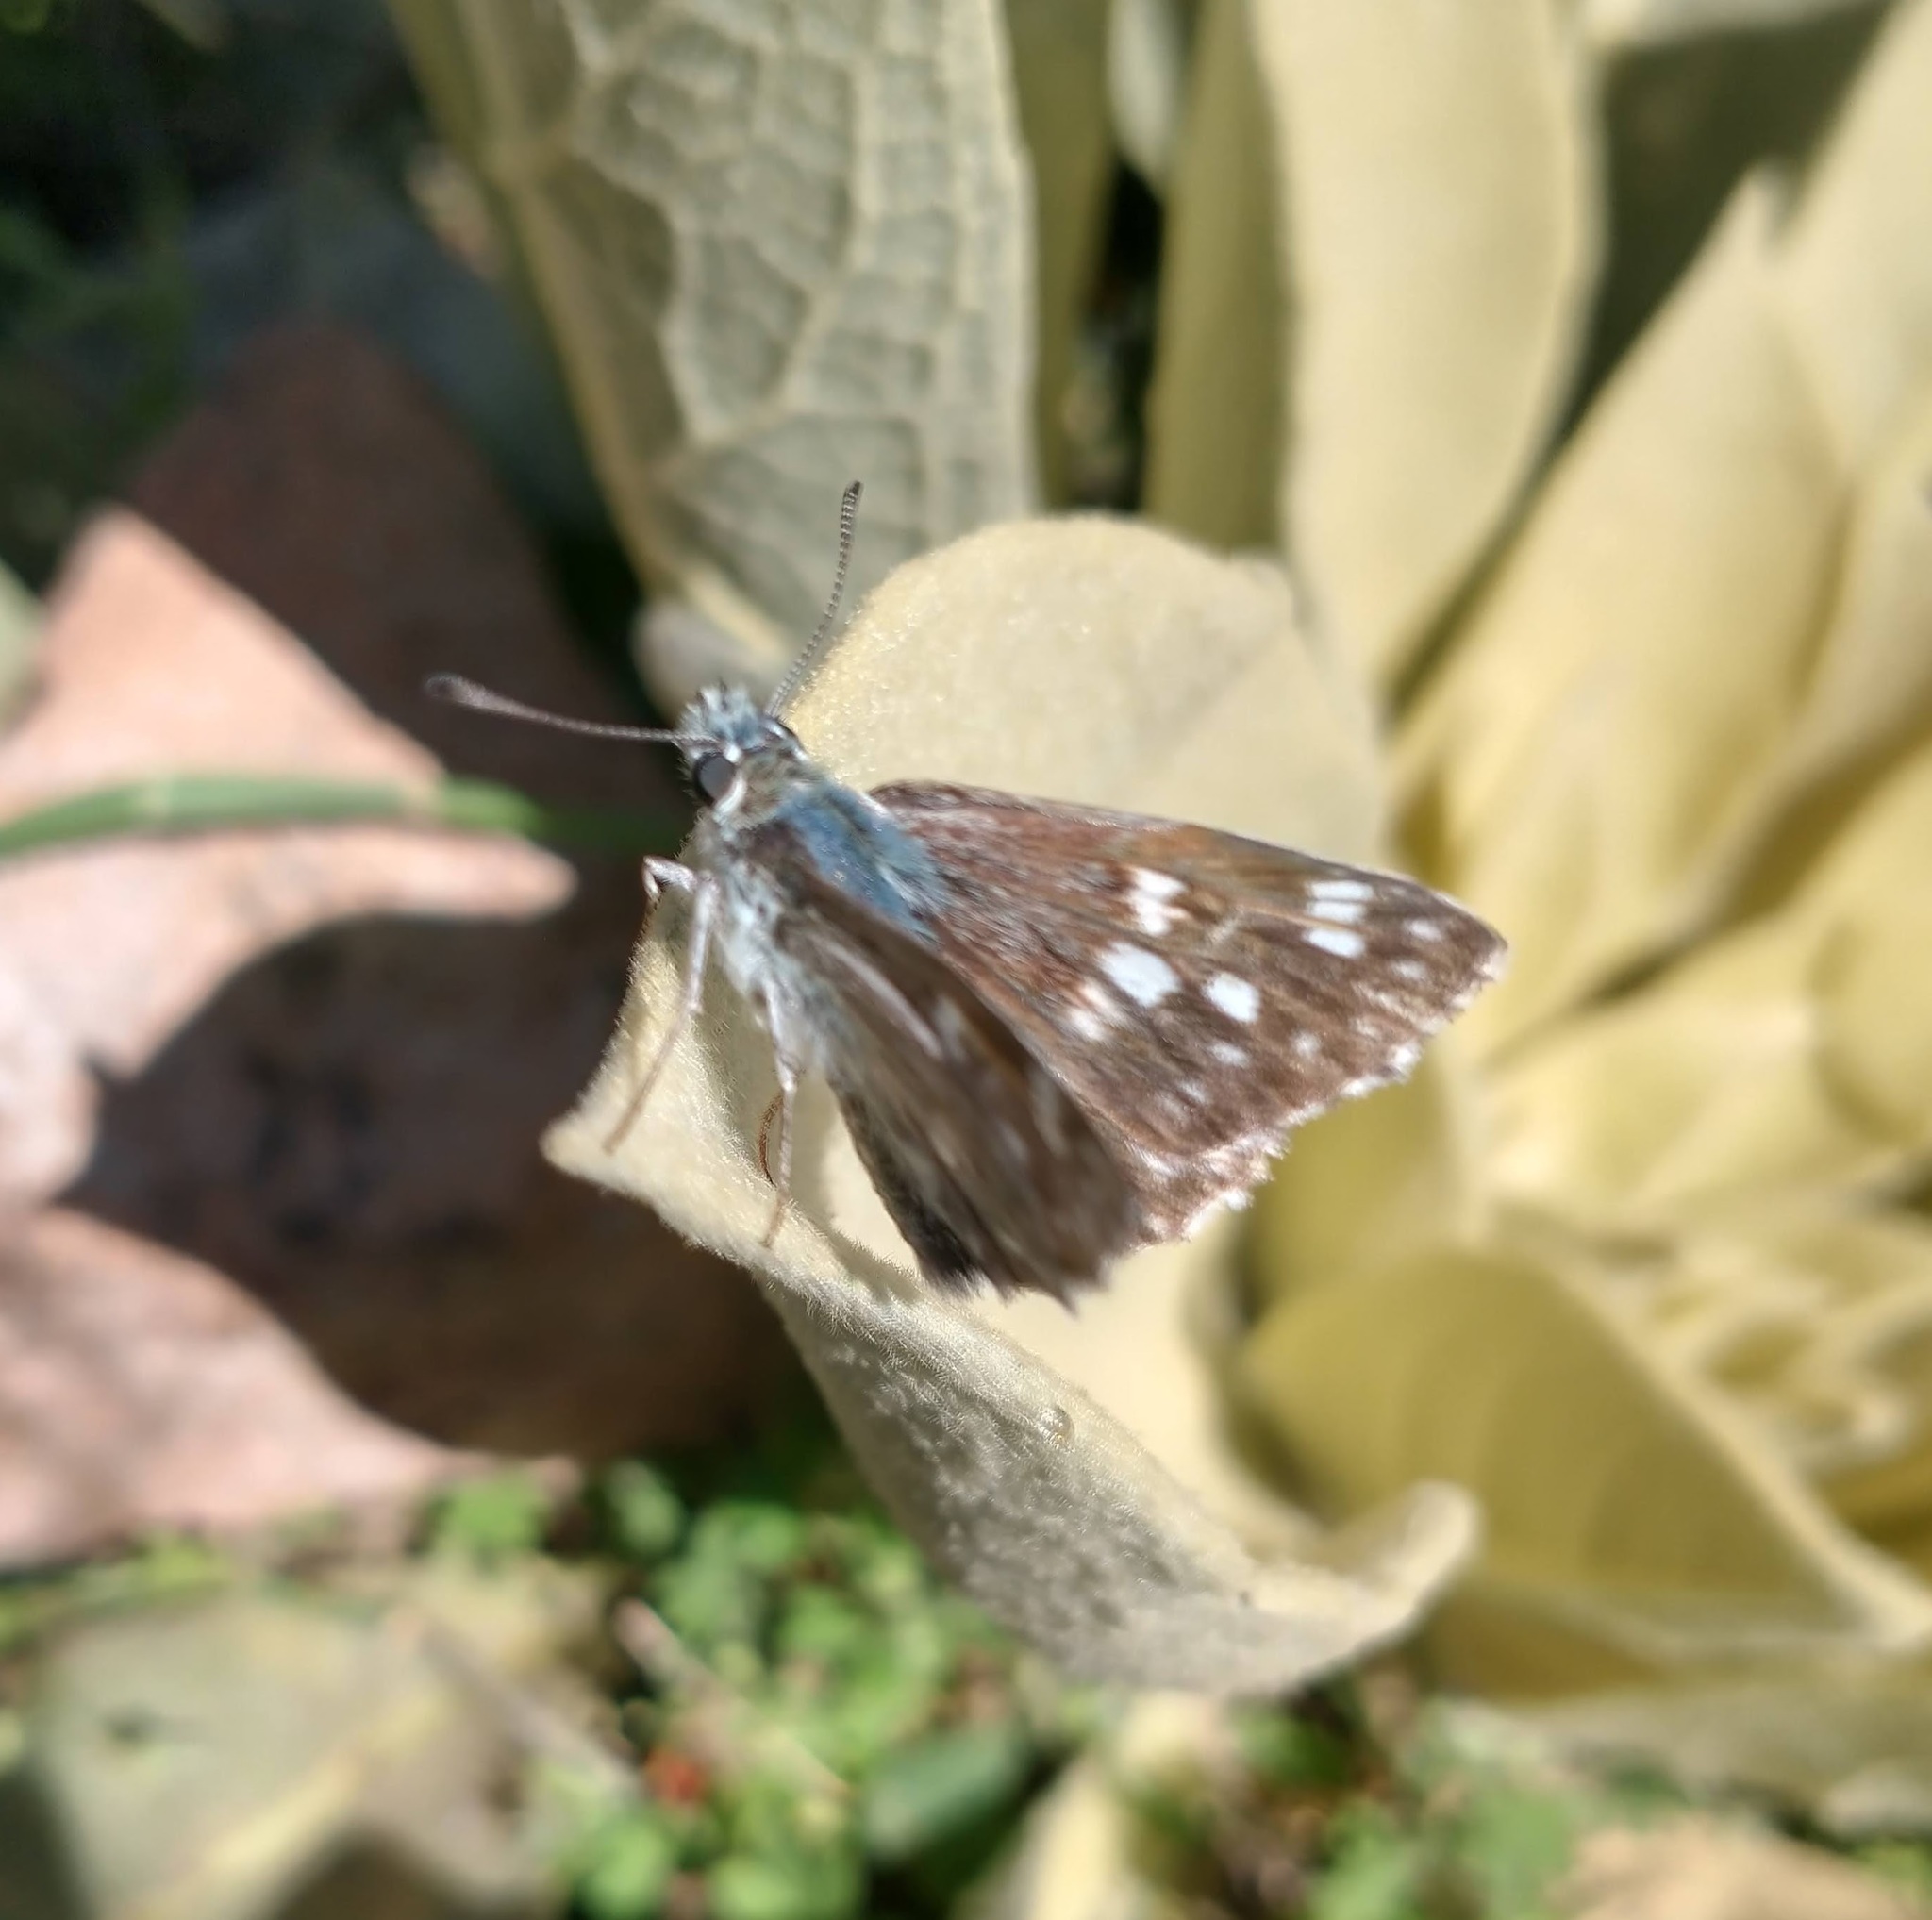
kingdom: Animalia
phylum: Arthropoda
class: Insecta
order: Lepidoptera
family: Hesperiidae
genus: Syrichtus
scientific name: Syrichtus tessellum
